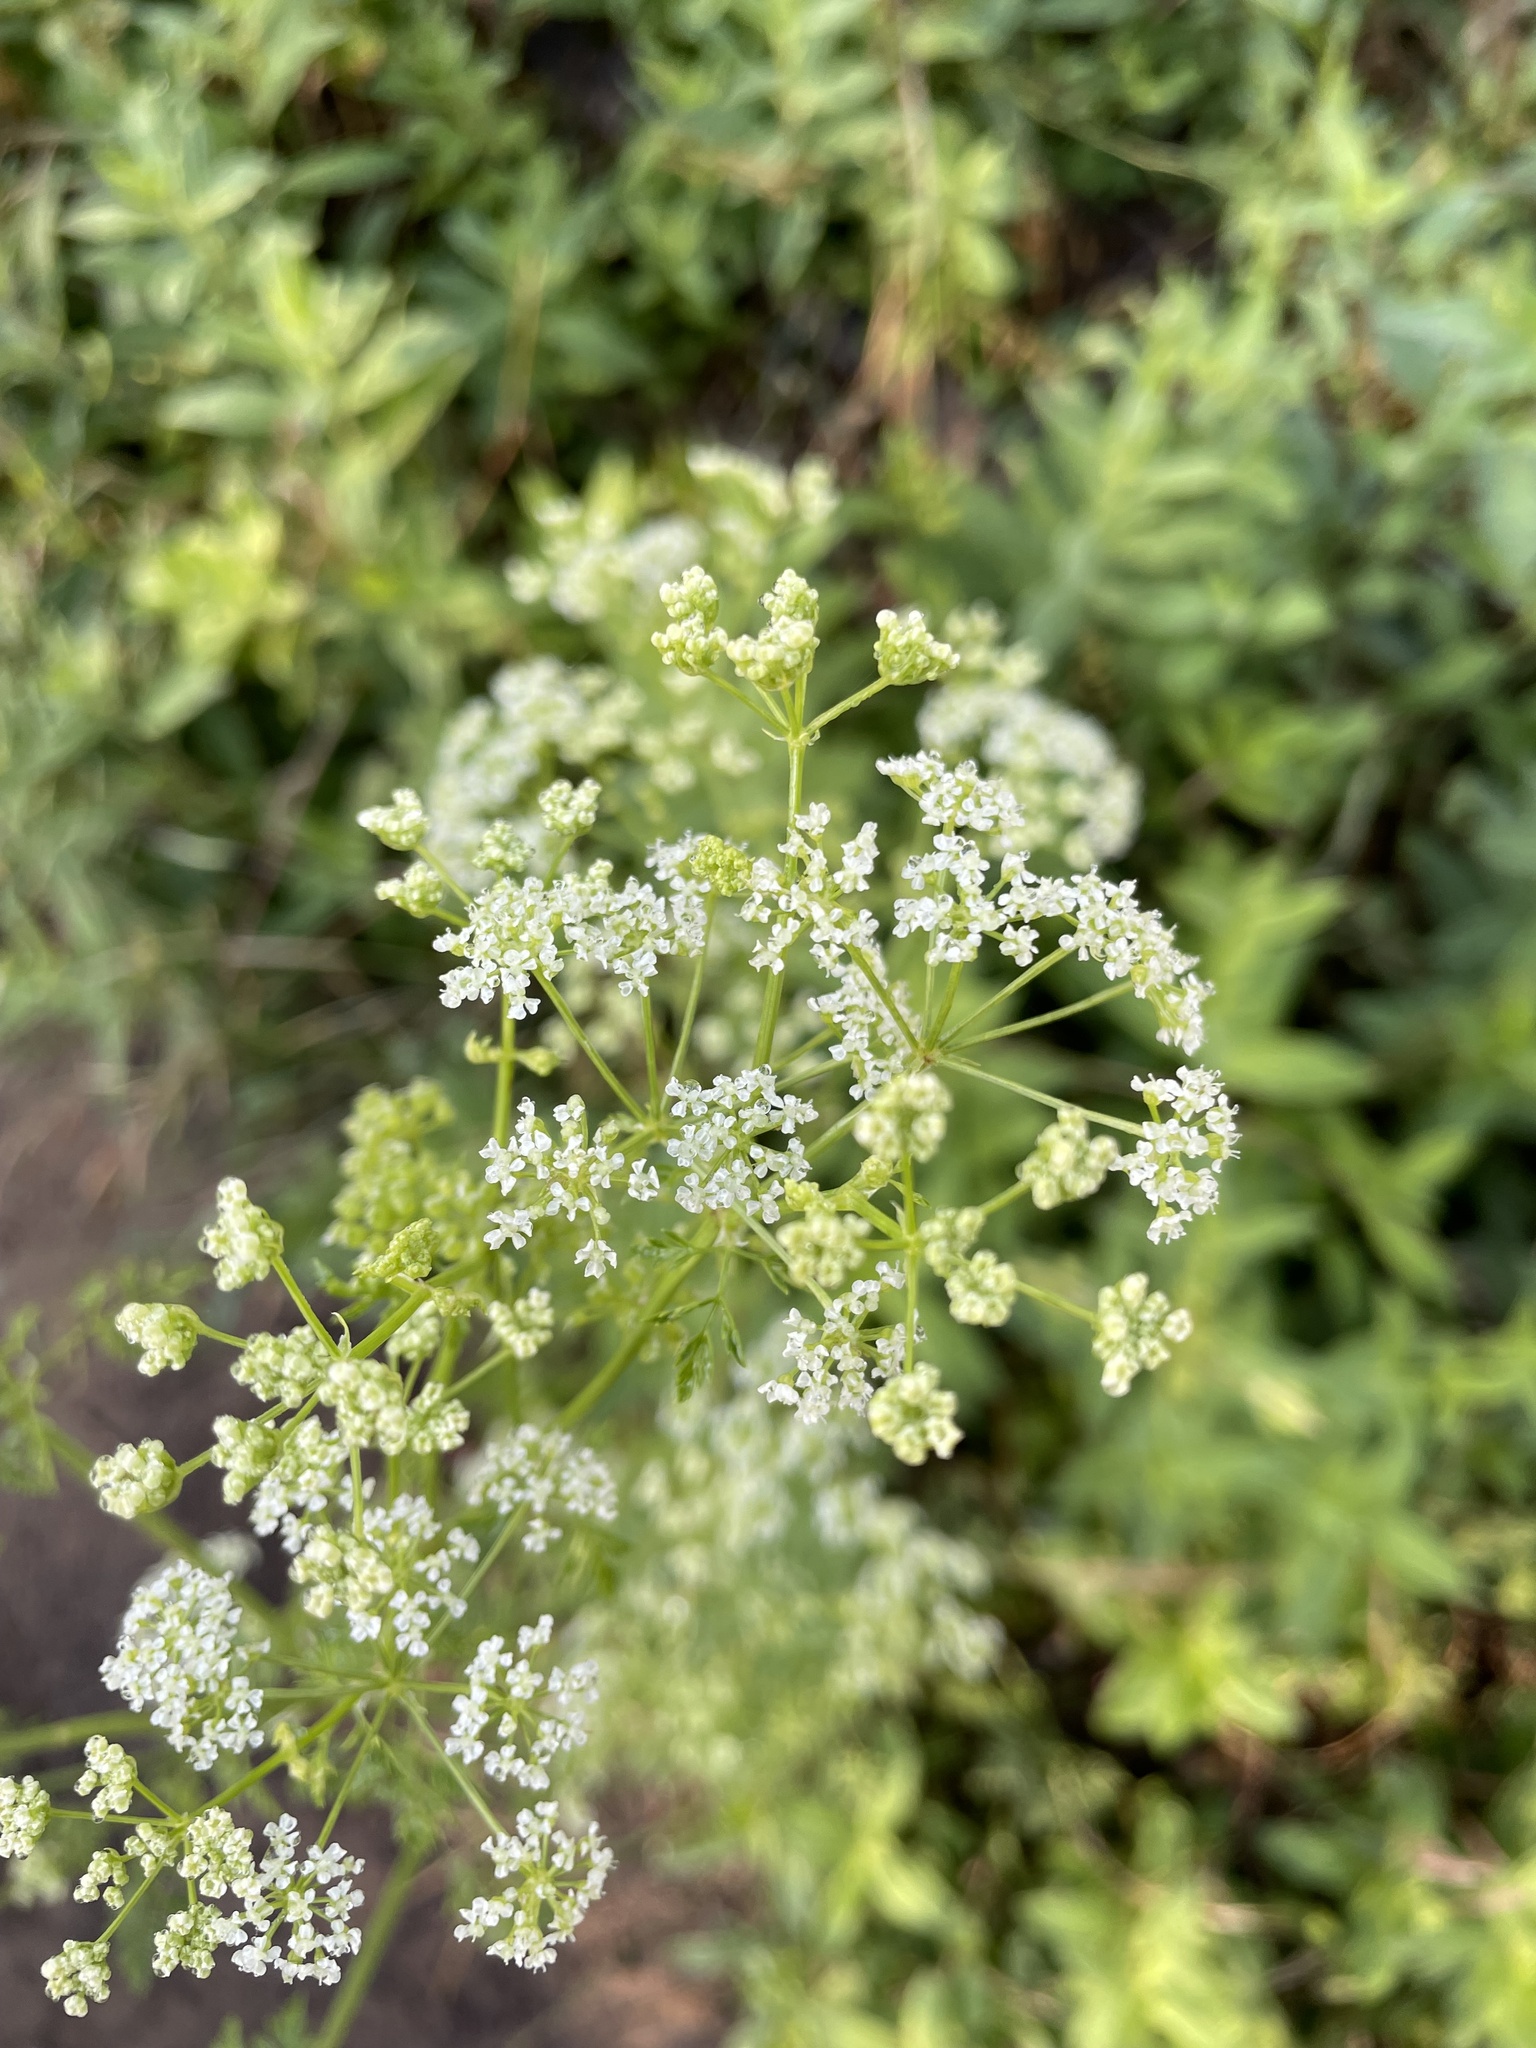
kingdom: Plantae
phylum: Tracheophyta
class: Magnoliopsida
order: Apiales
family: Apiaceae
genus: Conium
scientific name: Conium maculatum
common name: Hemlock
